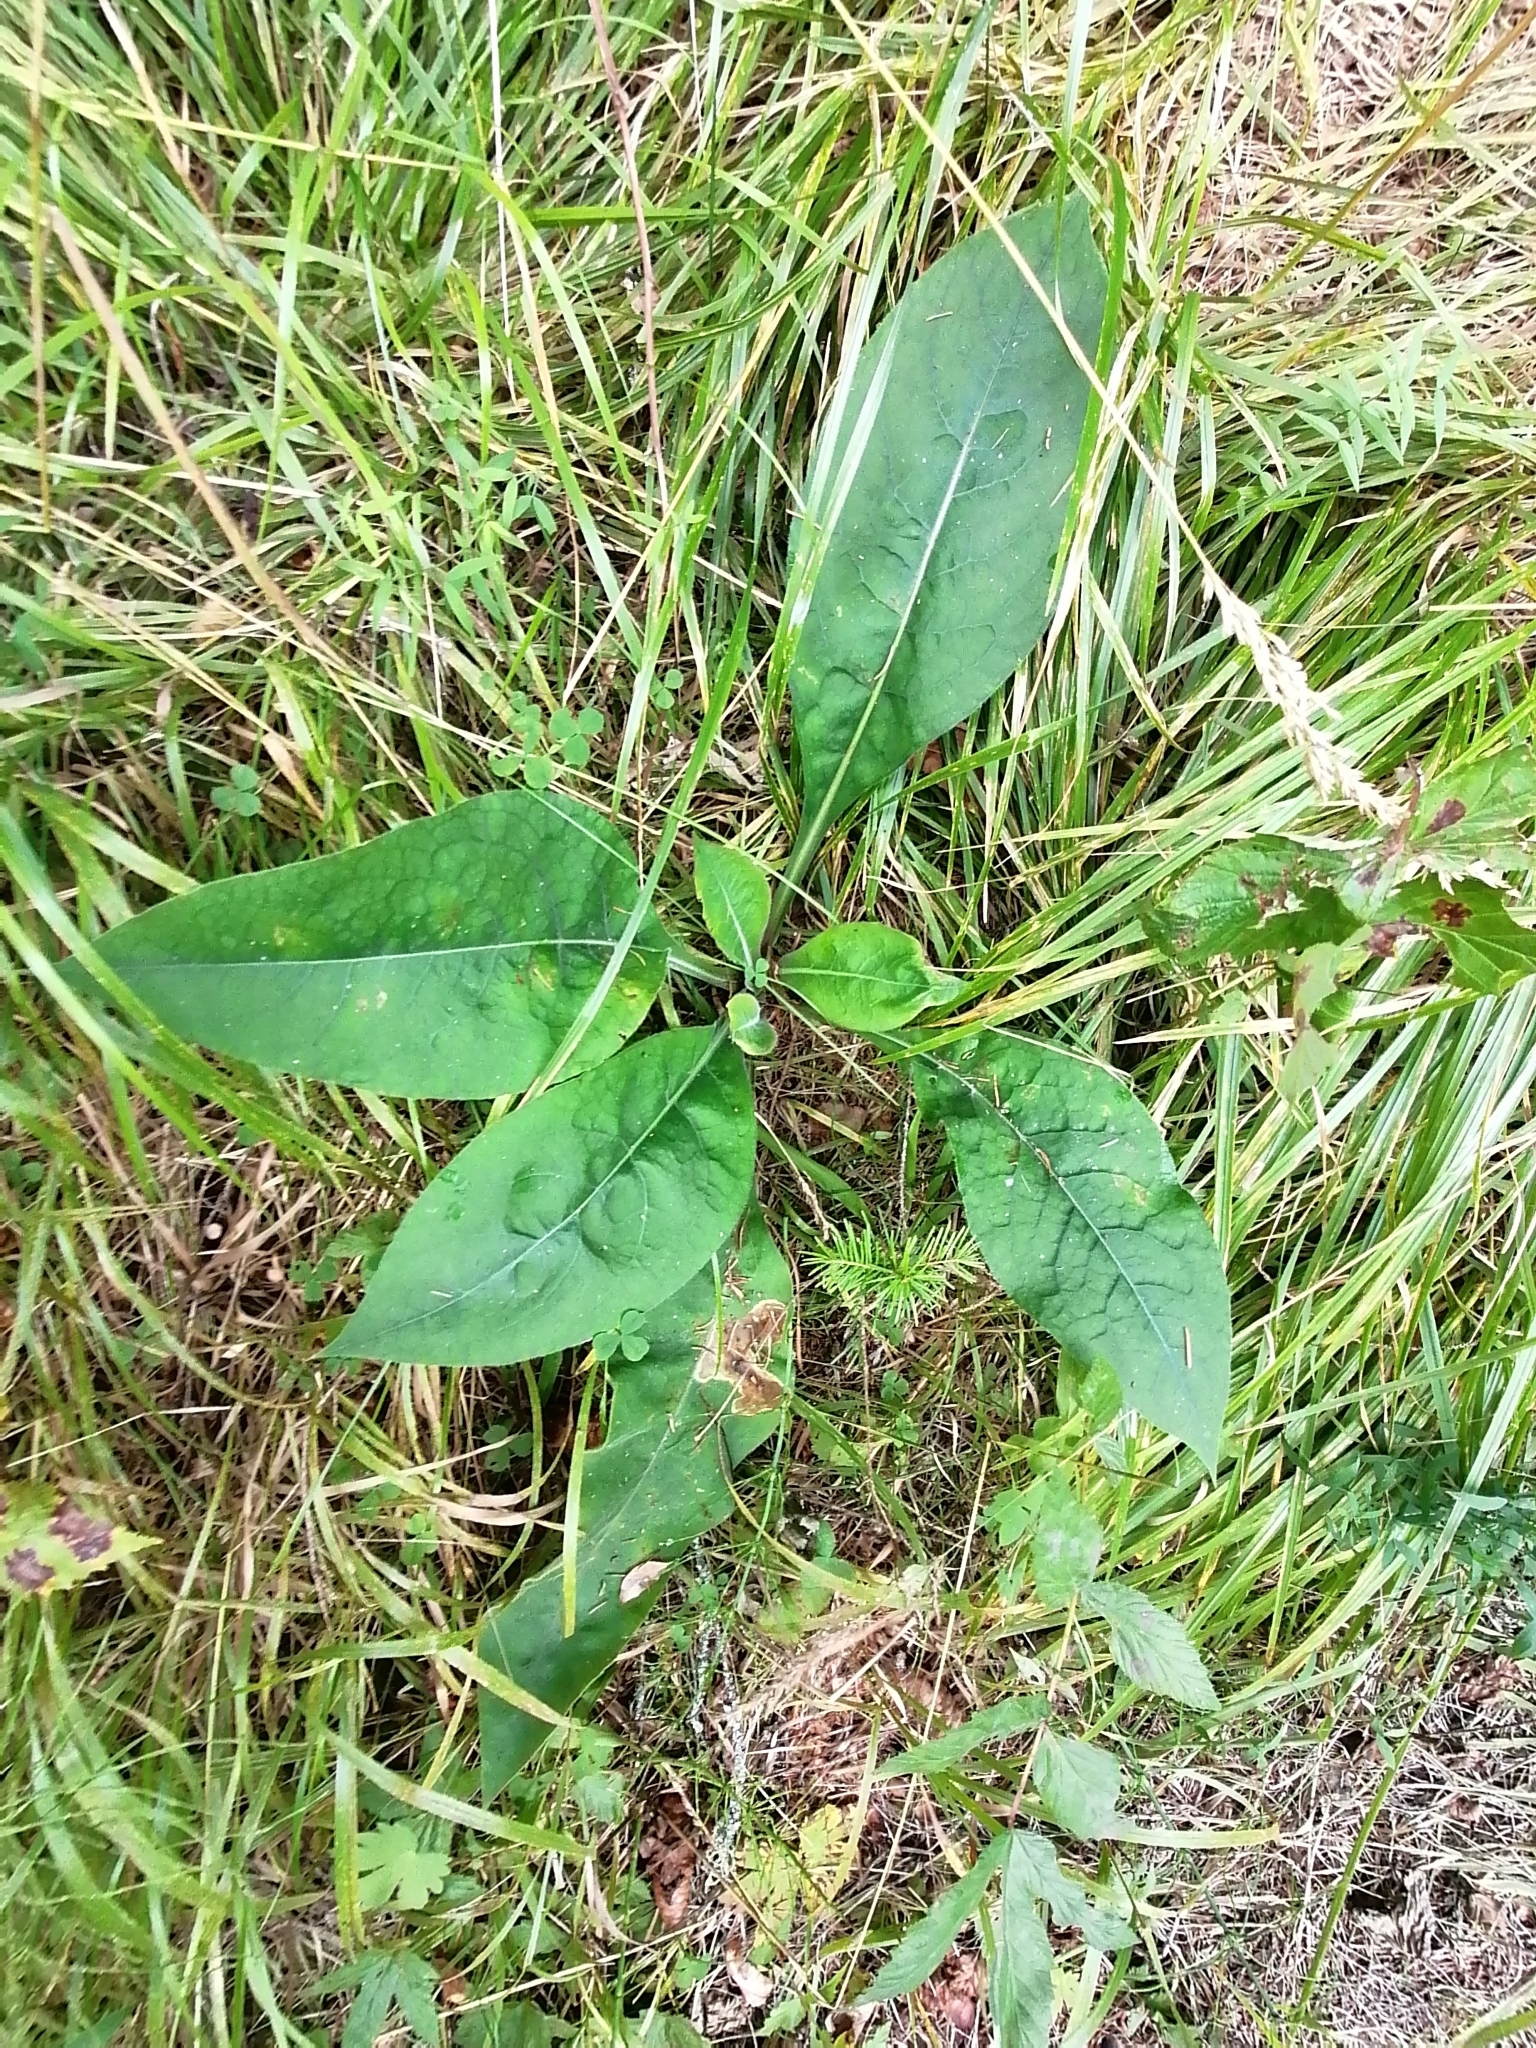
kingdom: Plantae
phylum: Tracheophyta
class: Magnoliopsida
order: Boraginales
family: Boraginaceae
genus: Pulmonaria
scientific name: Pulmonaria mollis
